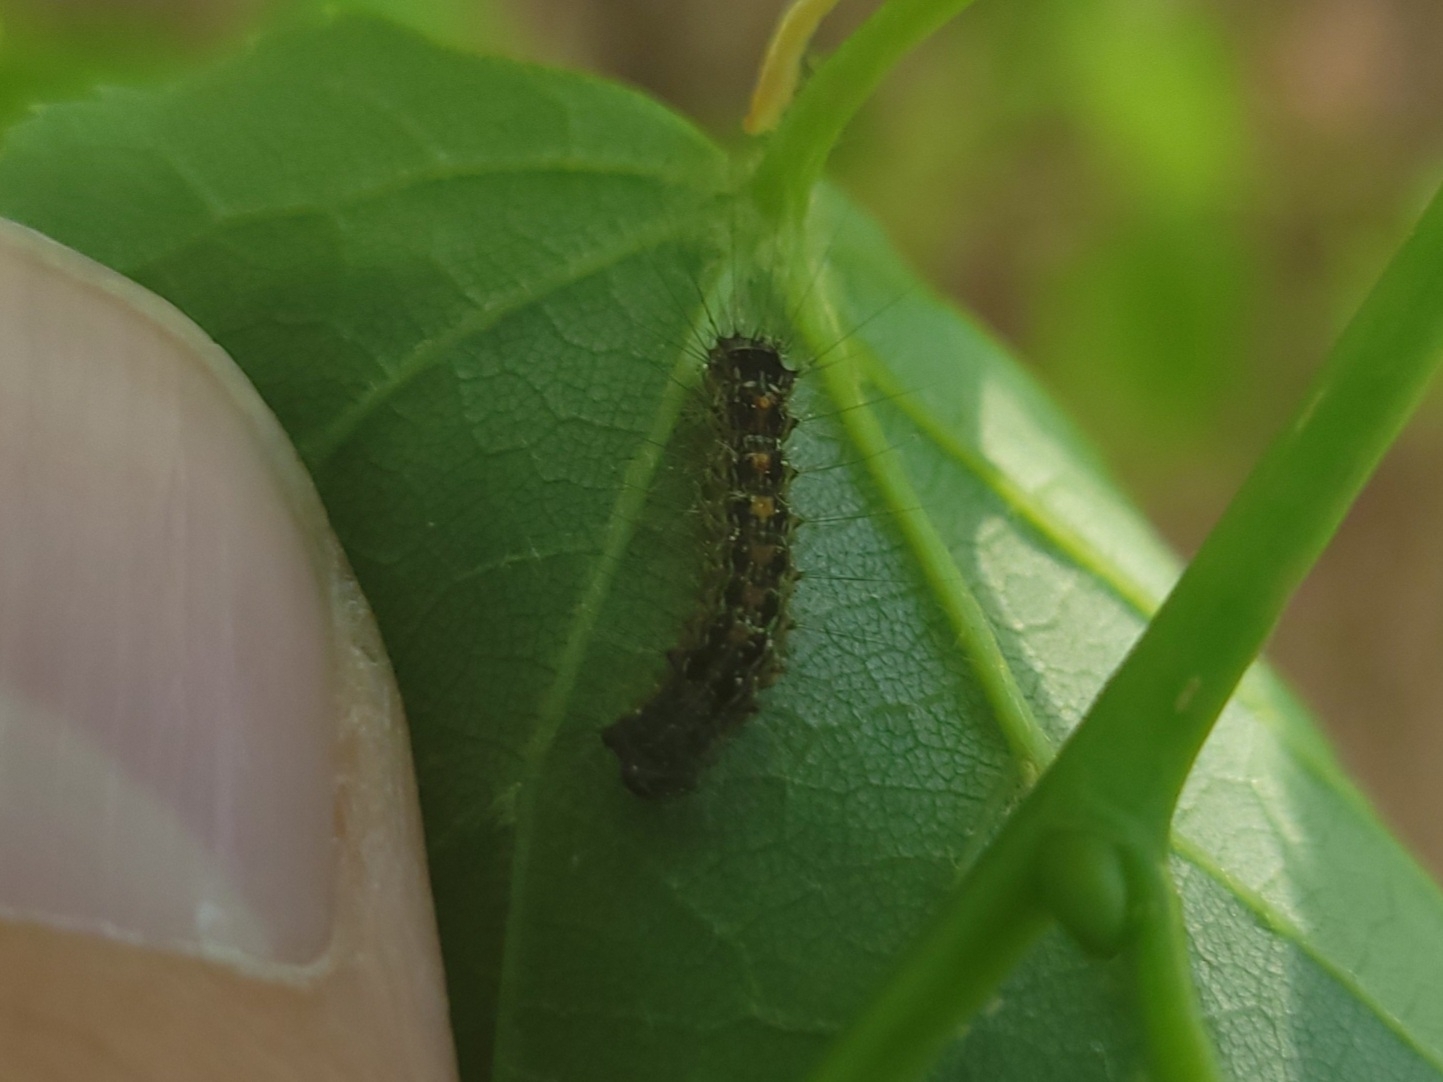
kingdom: Animalia
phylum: Arthropoda
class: Insecta
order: Lepidoptera
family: Erebidae
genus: Lymantria
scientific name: Lymantria dispar
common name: Gypsy moth
